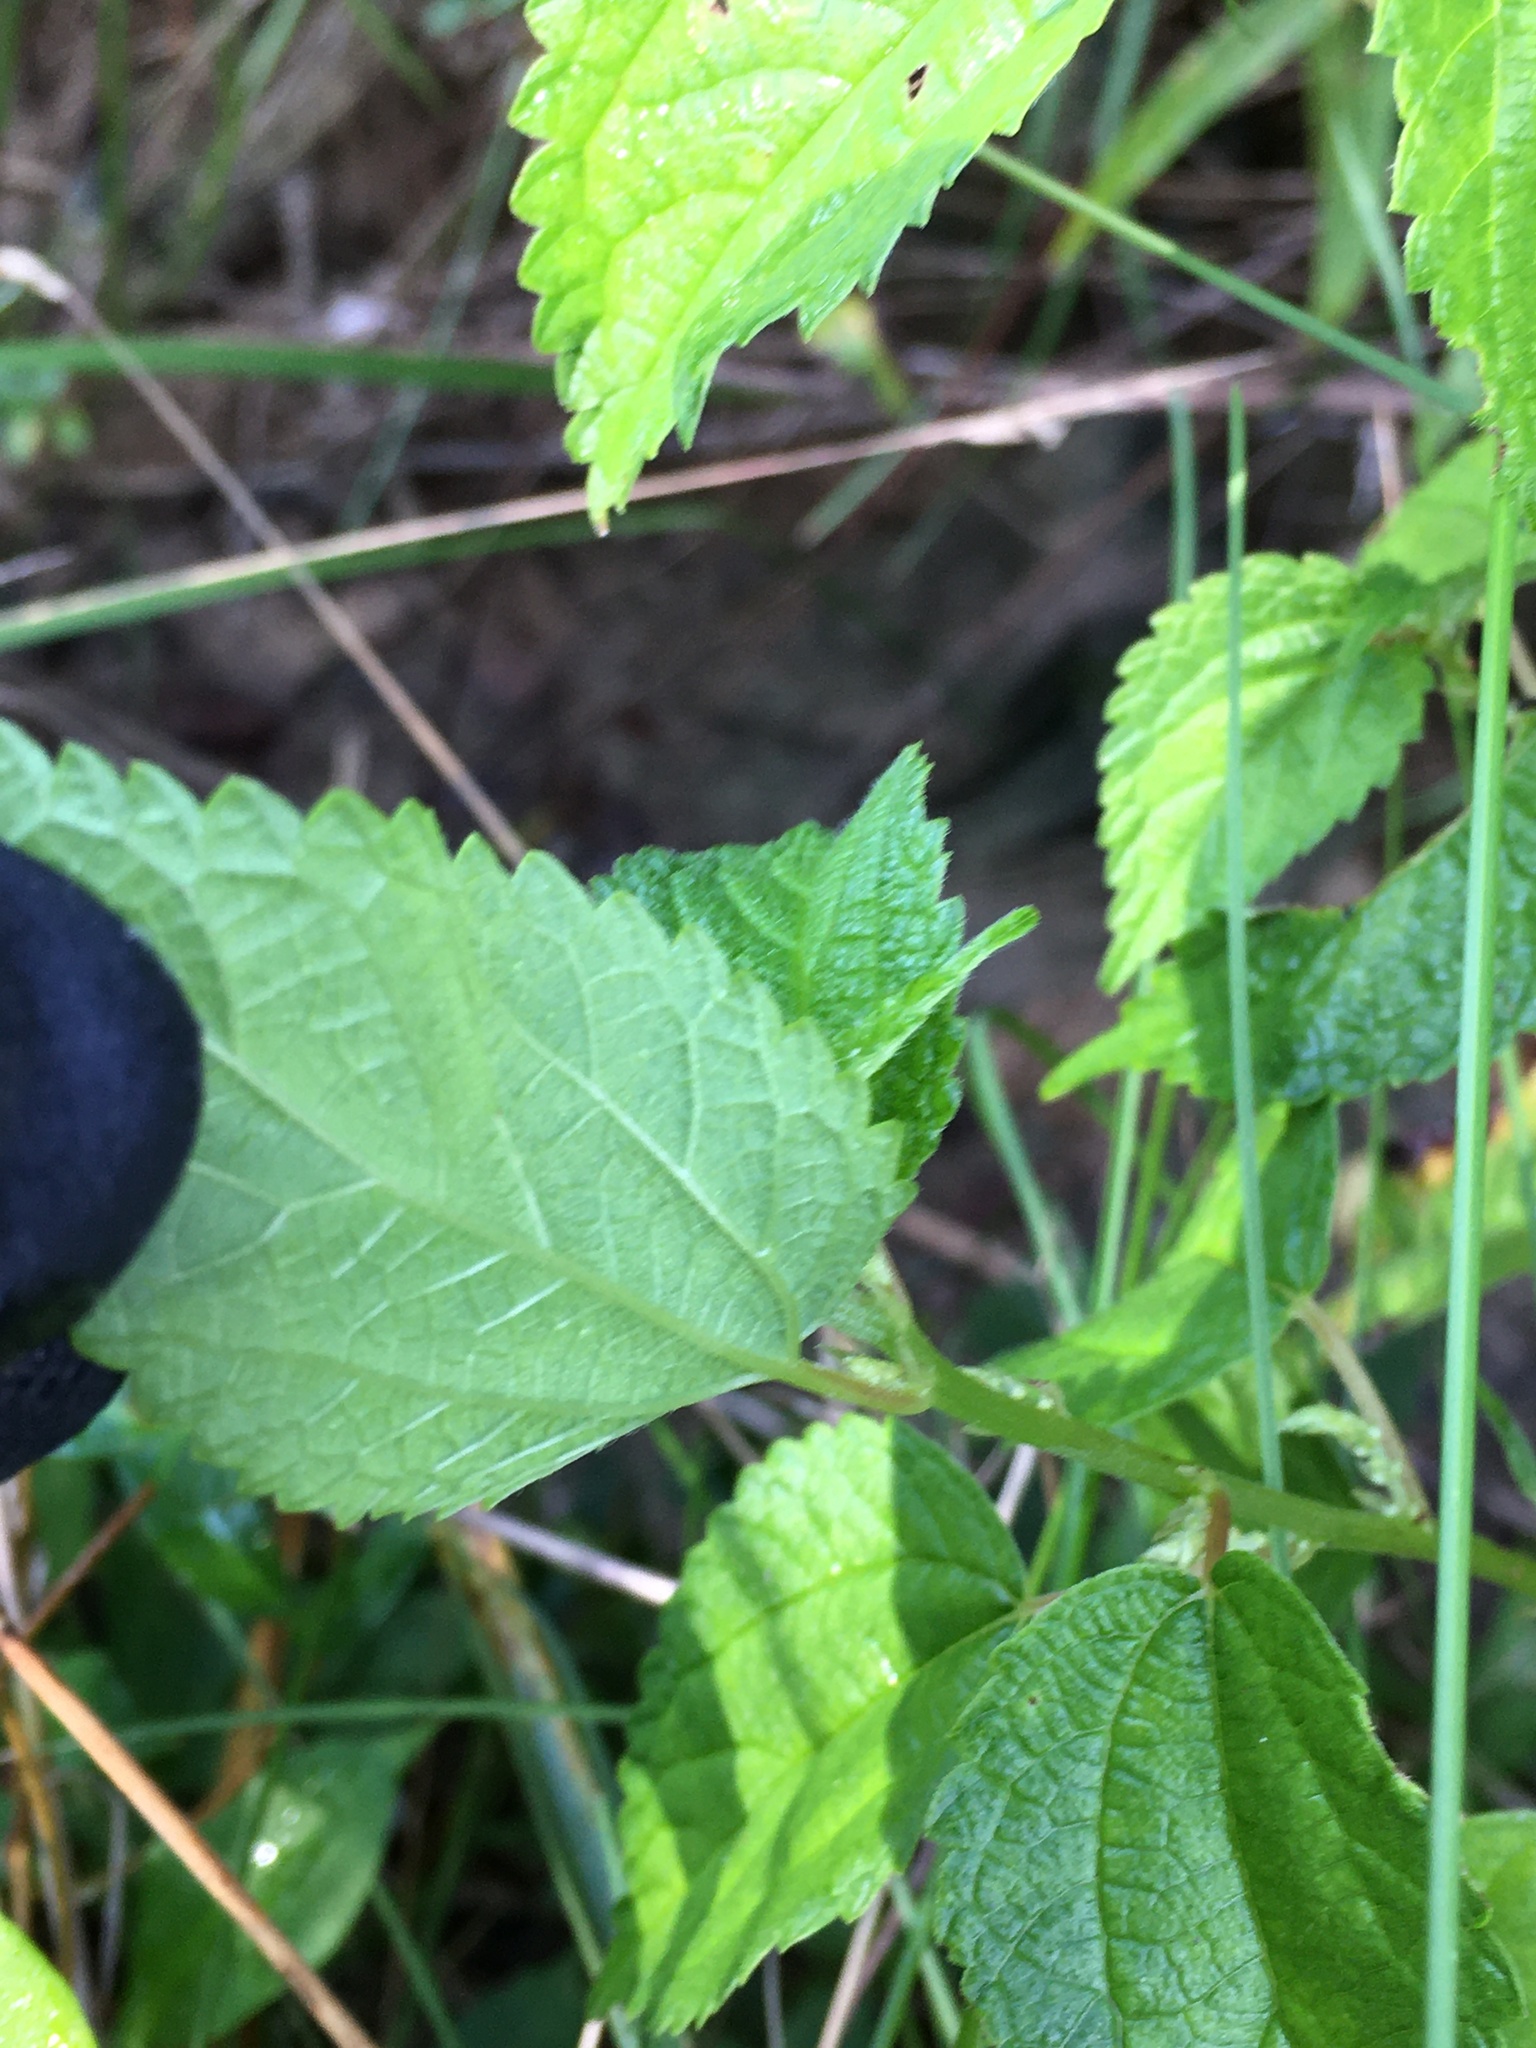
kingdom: Plantae
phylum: Tracheophyta
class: Magnoliopsida
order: Rosales
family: Urticaceae
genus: Boehmeria
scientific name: Boehmeria cylindrica
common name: Bog-hemp
